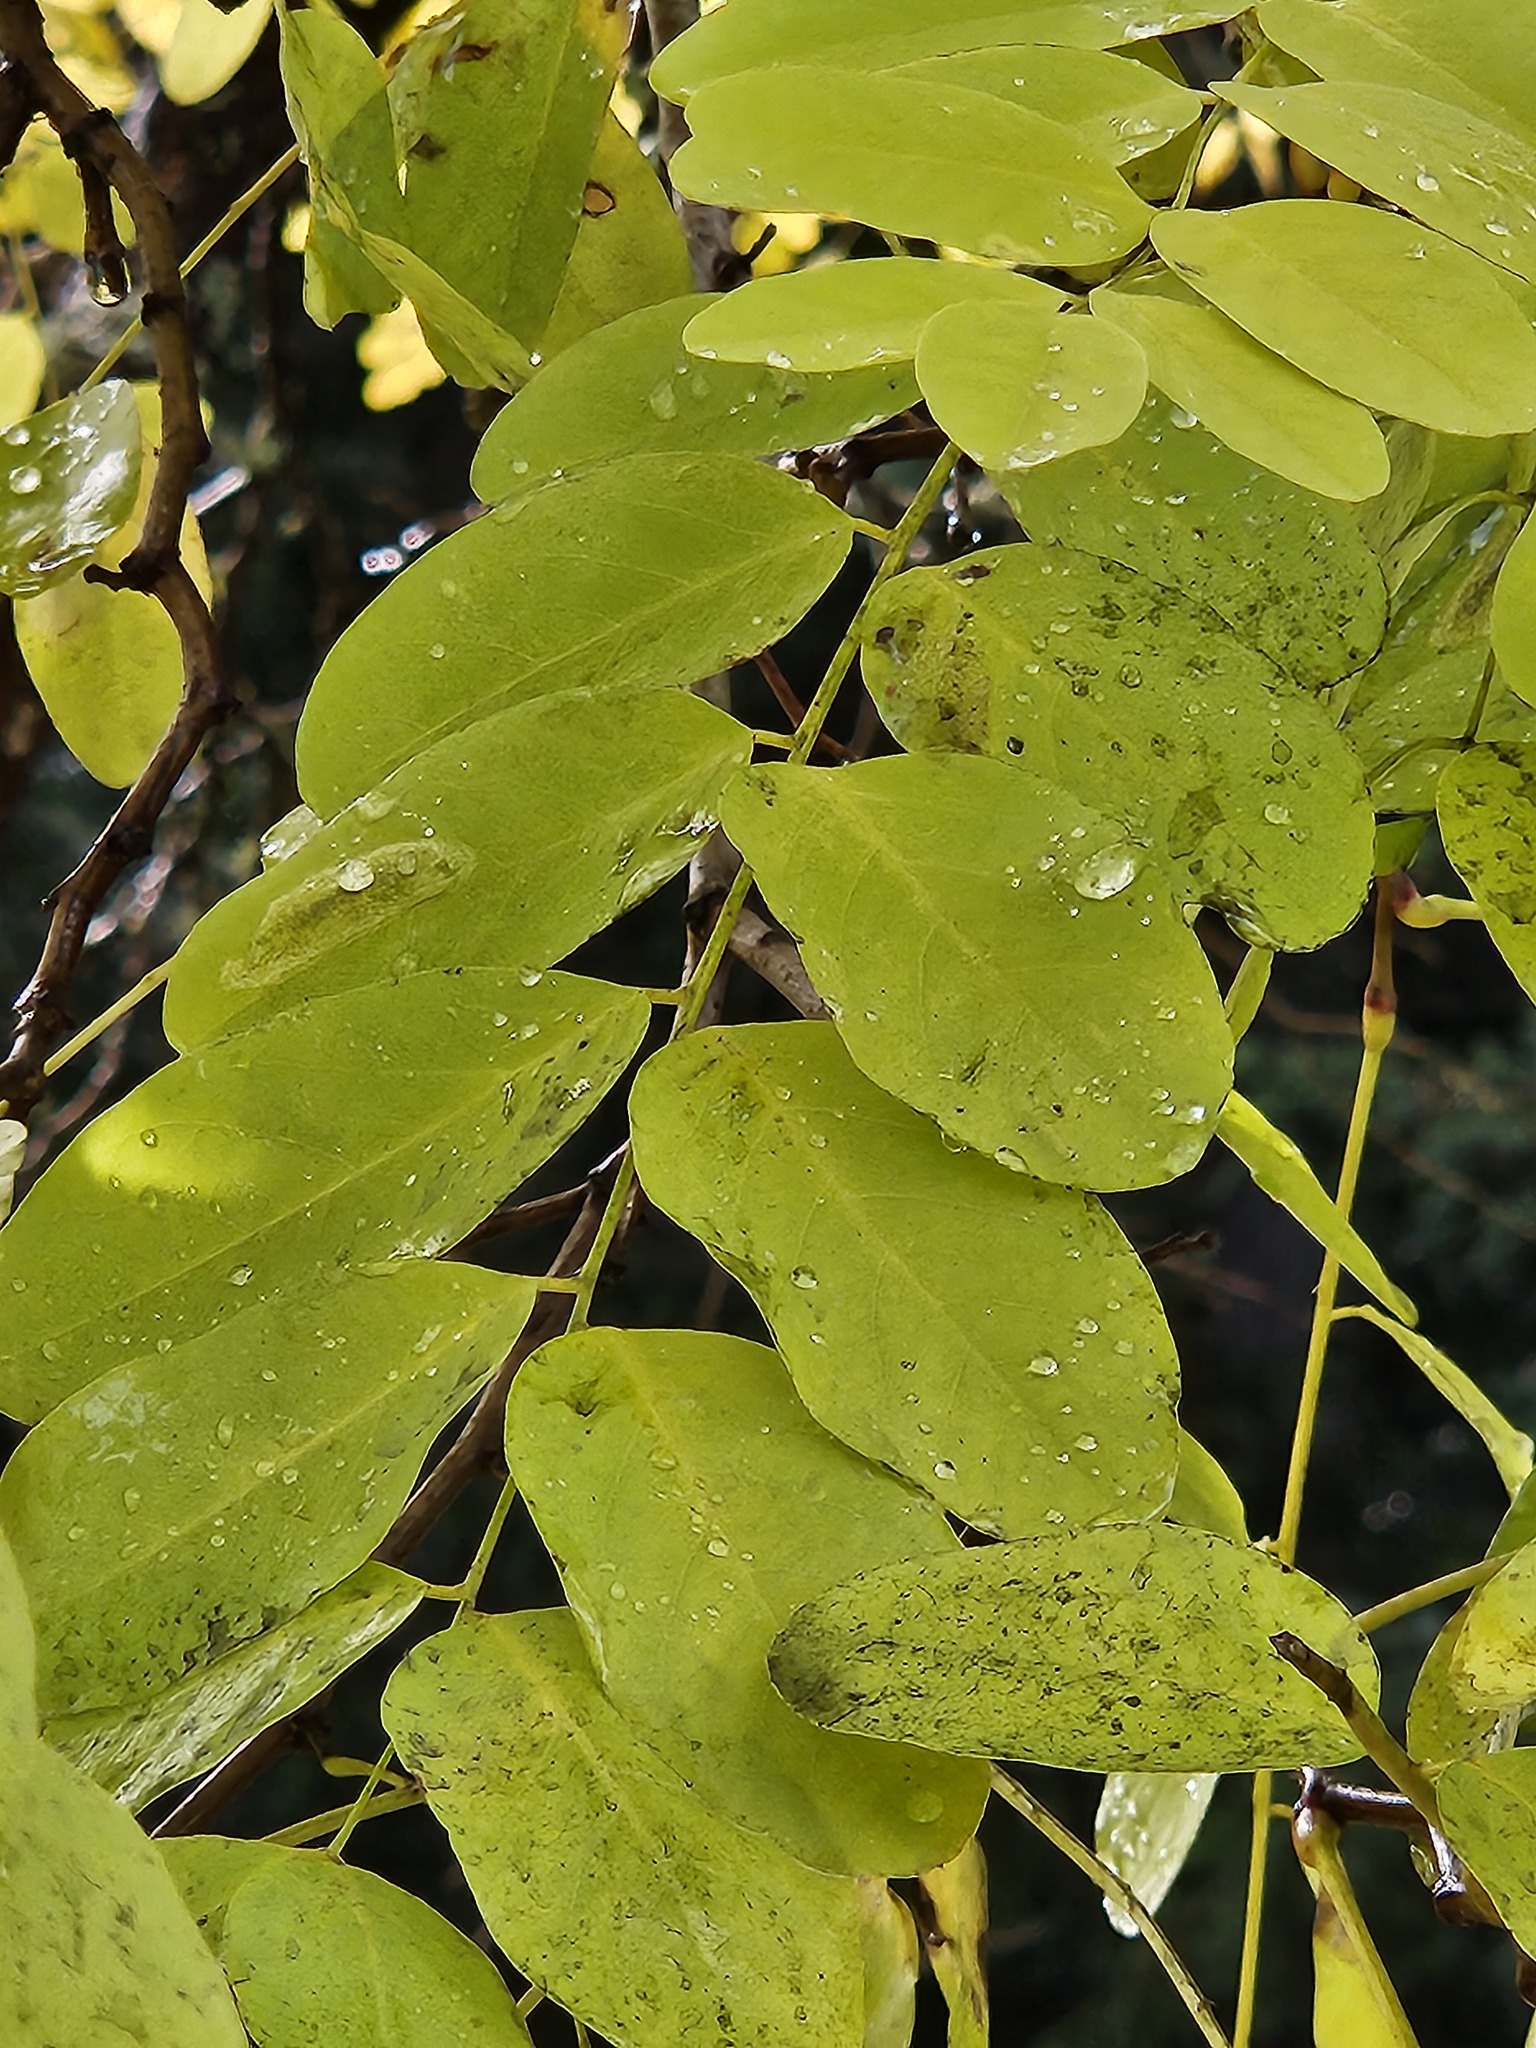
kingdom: Plantae
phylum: Tracheophyta
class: Magnoliopsida
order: Fabales
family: Fabaceae
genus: Robinia
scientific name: Robinia pseudoacacia
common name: Black locust
